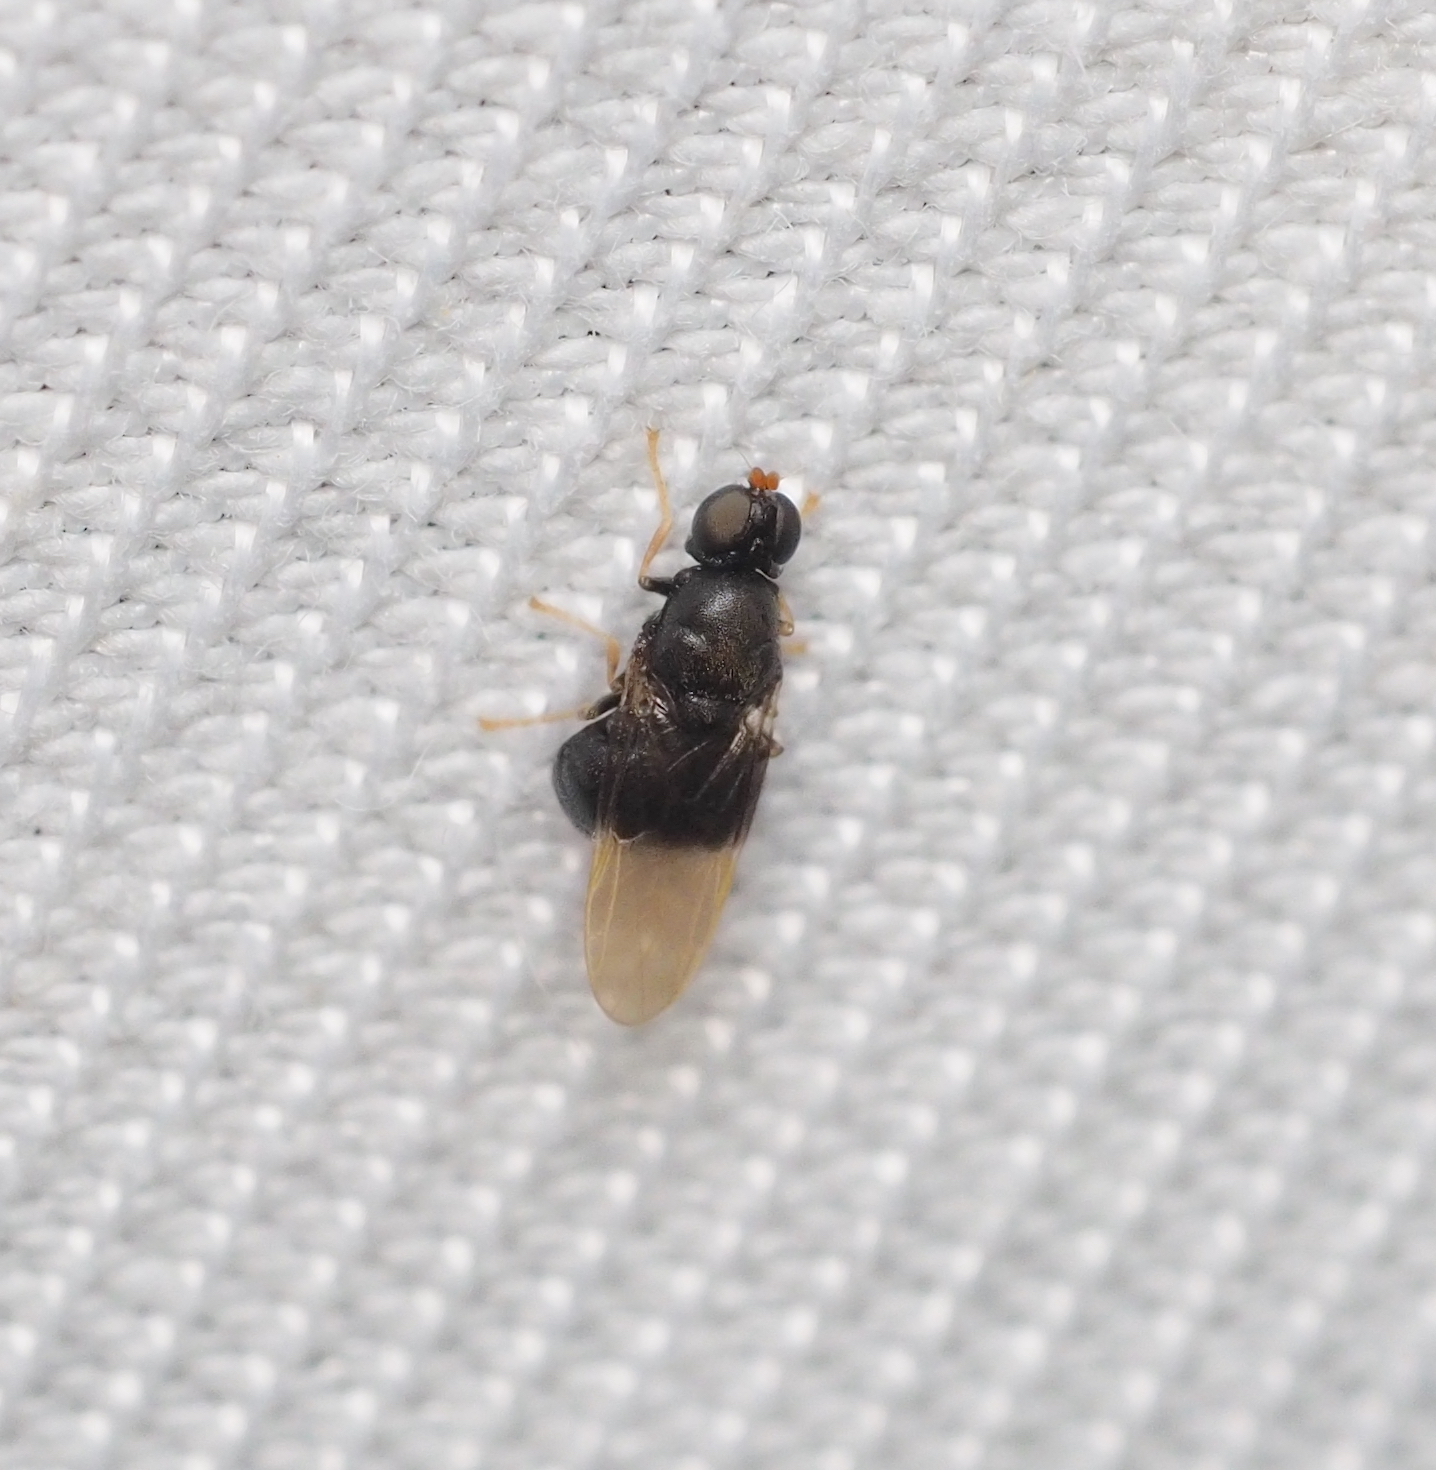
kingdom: Animalia
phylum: Arthropoda
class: Insecta
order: Diptera
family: Stratiomyidae
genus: Pachygaster
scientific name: Pachygaster atra
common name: Dark-winged black
